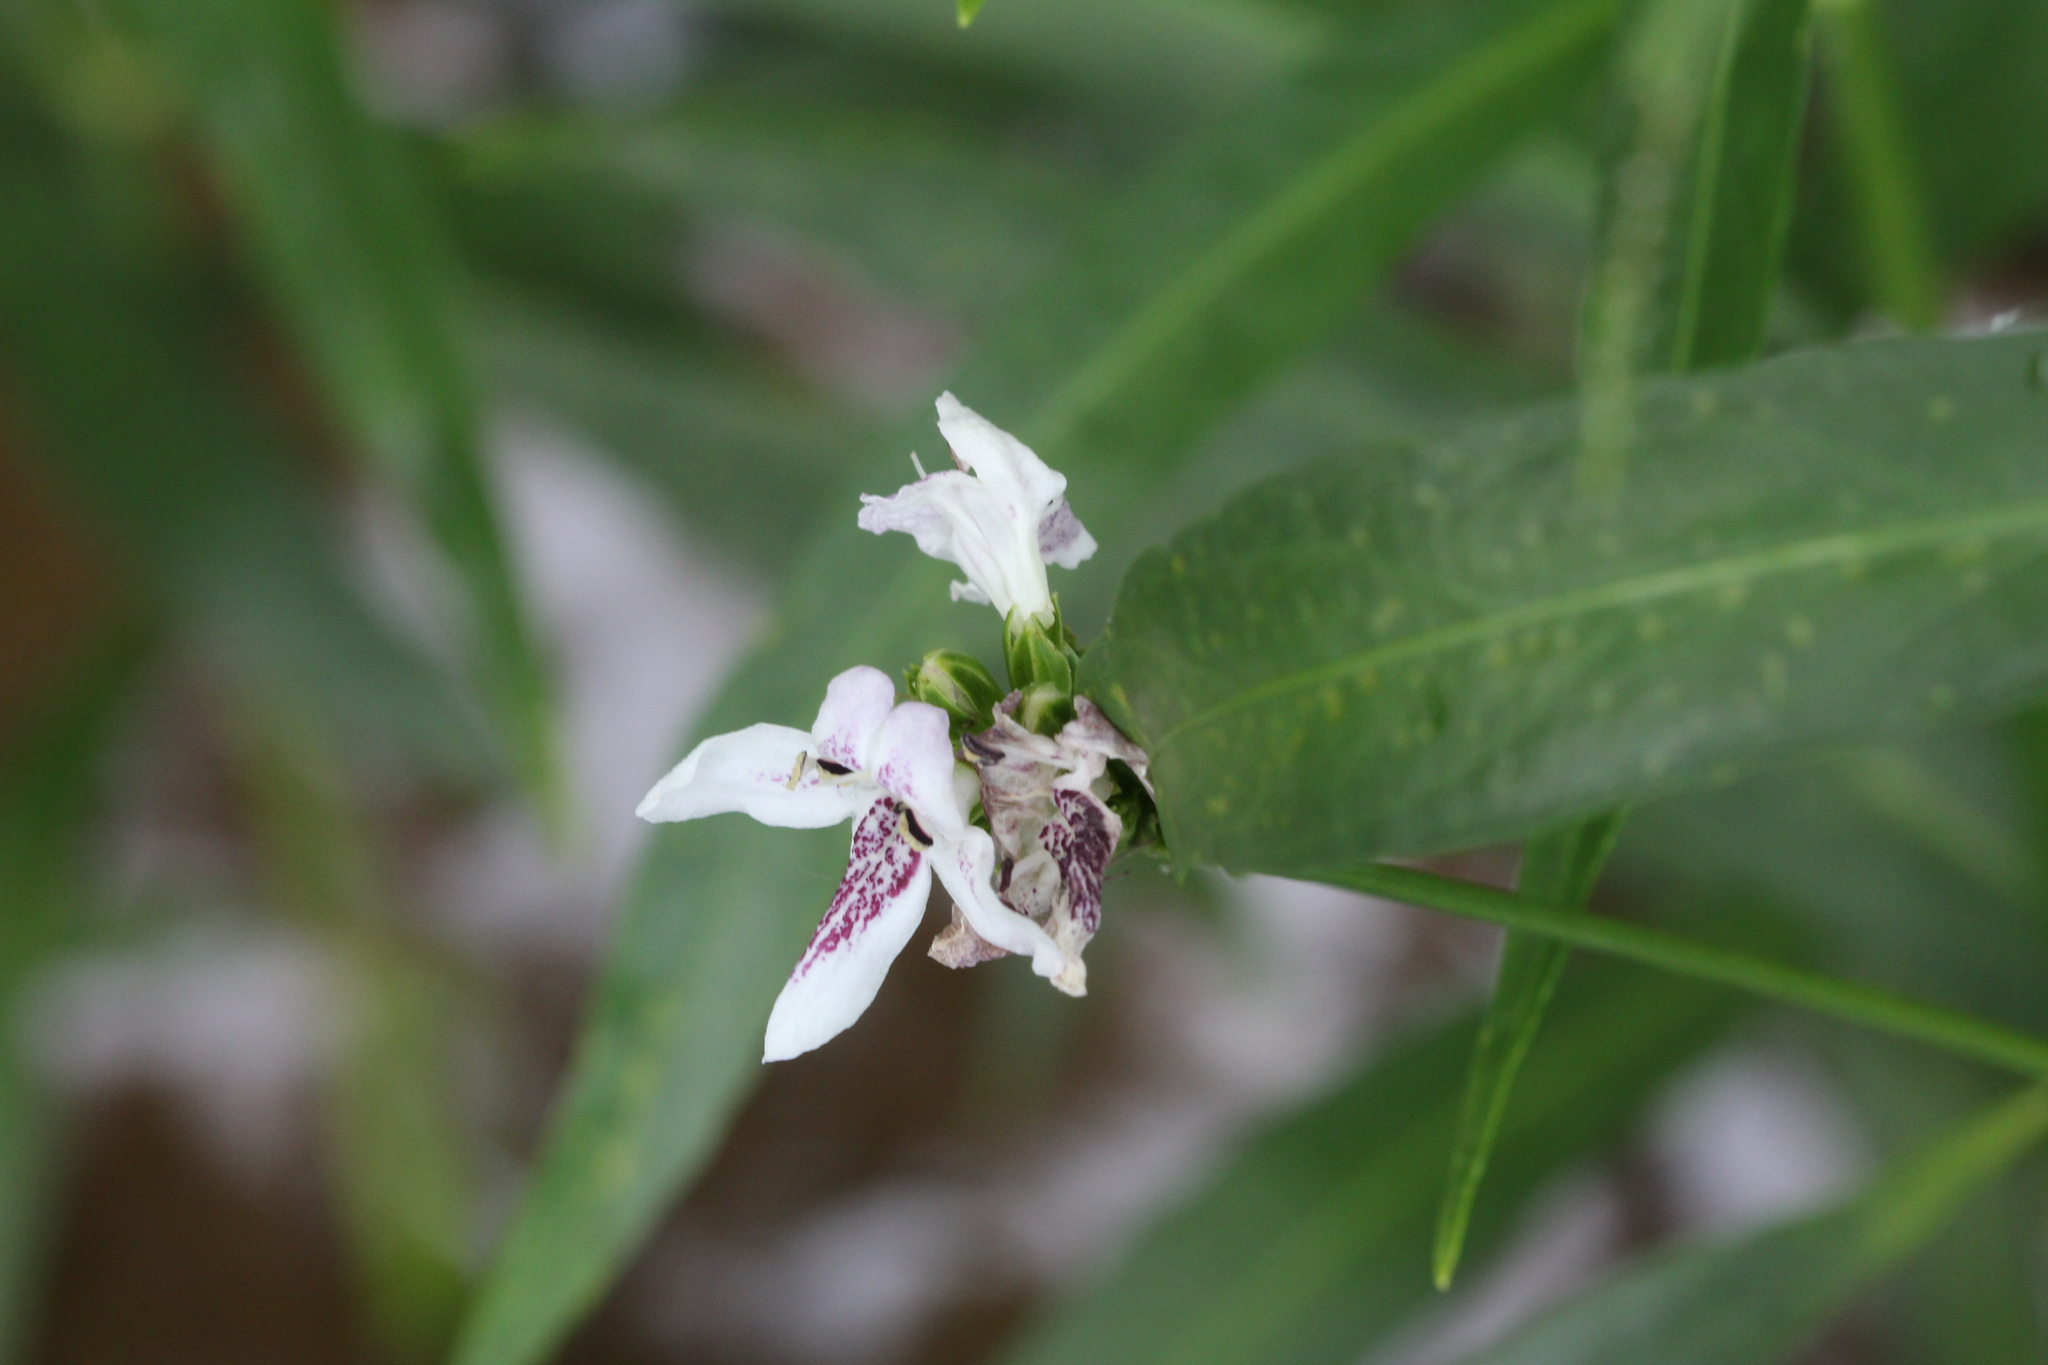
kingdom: Plantae
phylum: Tracheophyta
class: Magnoliopsida
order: Lamiales
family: Acanthaceae
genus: Dianthera
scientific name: Dianthera americana
